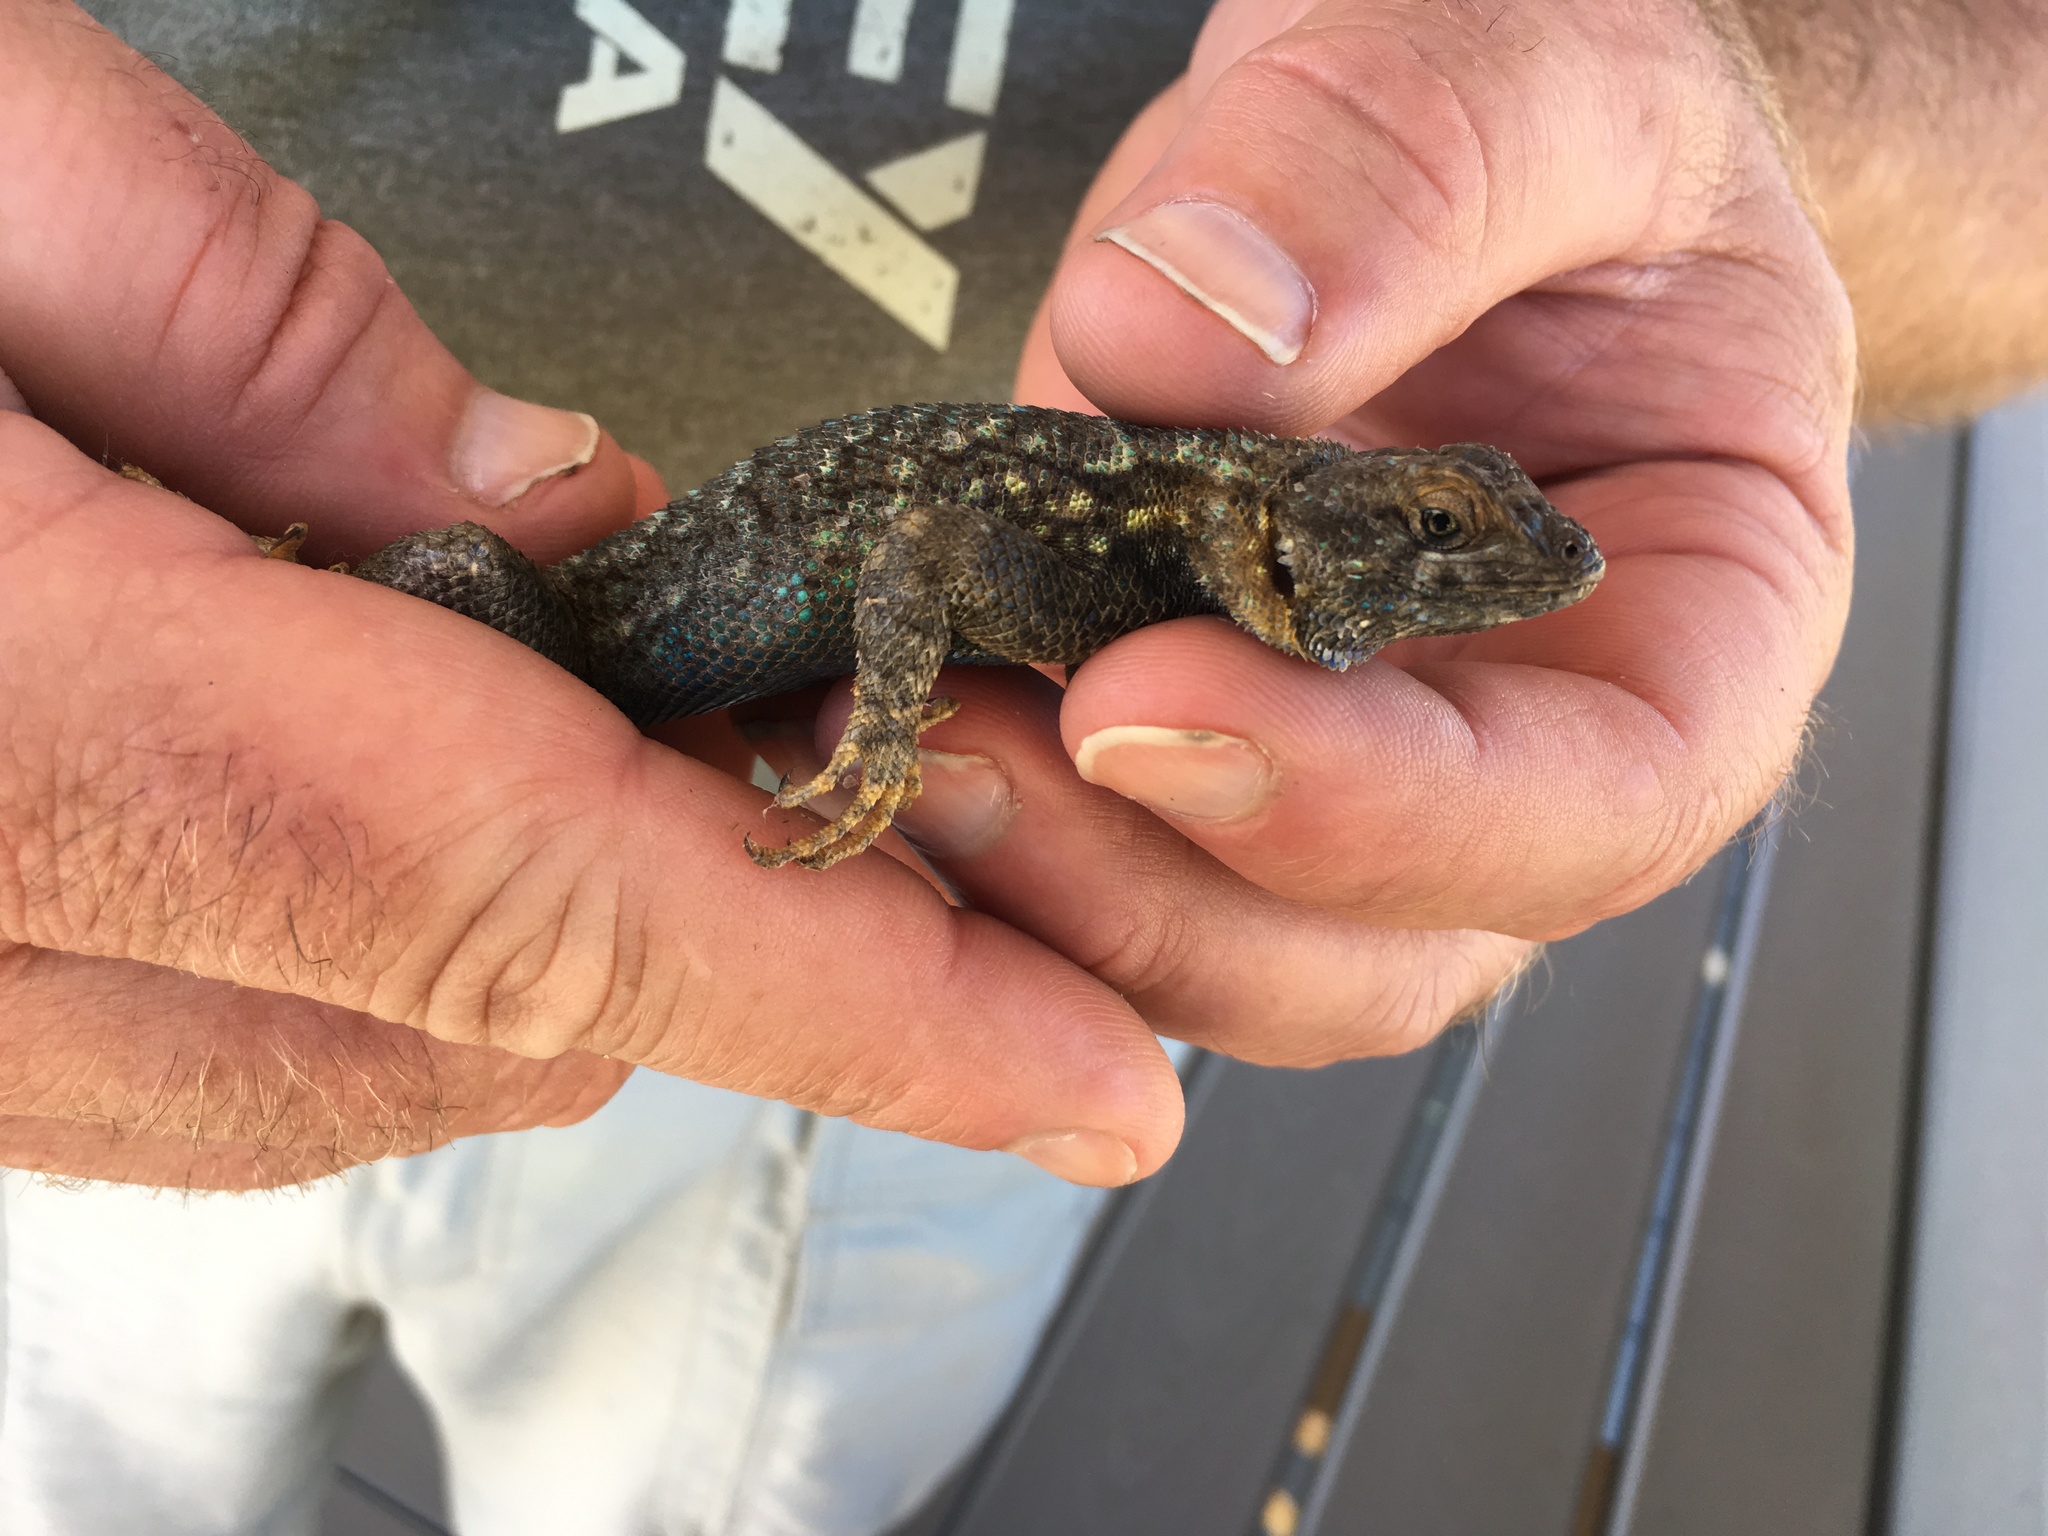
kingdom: Animalia
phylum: Chordata
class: Squamata
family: Phrynosomatidae
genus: Sceloporus
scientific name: Sceloporus occidentalis
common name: Western fence lizard
